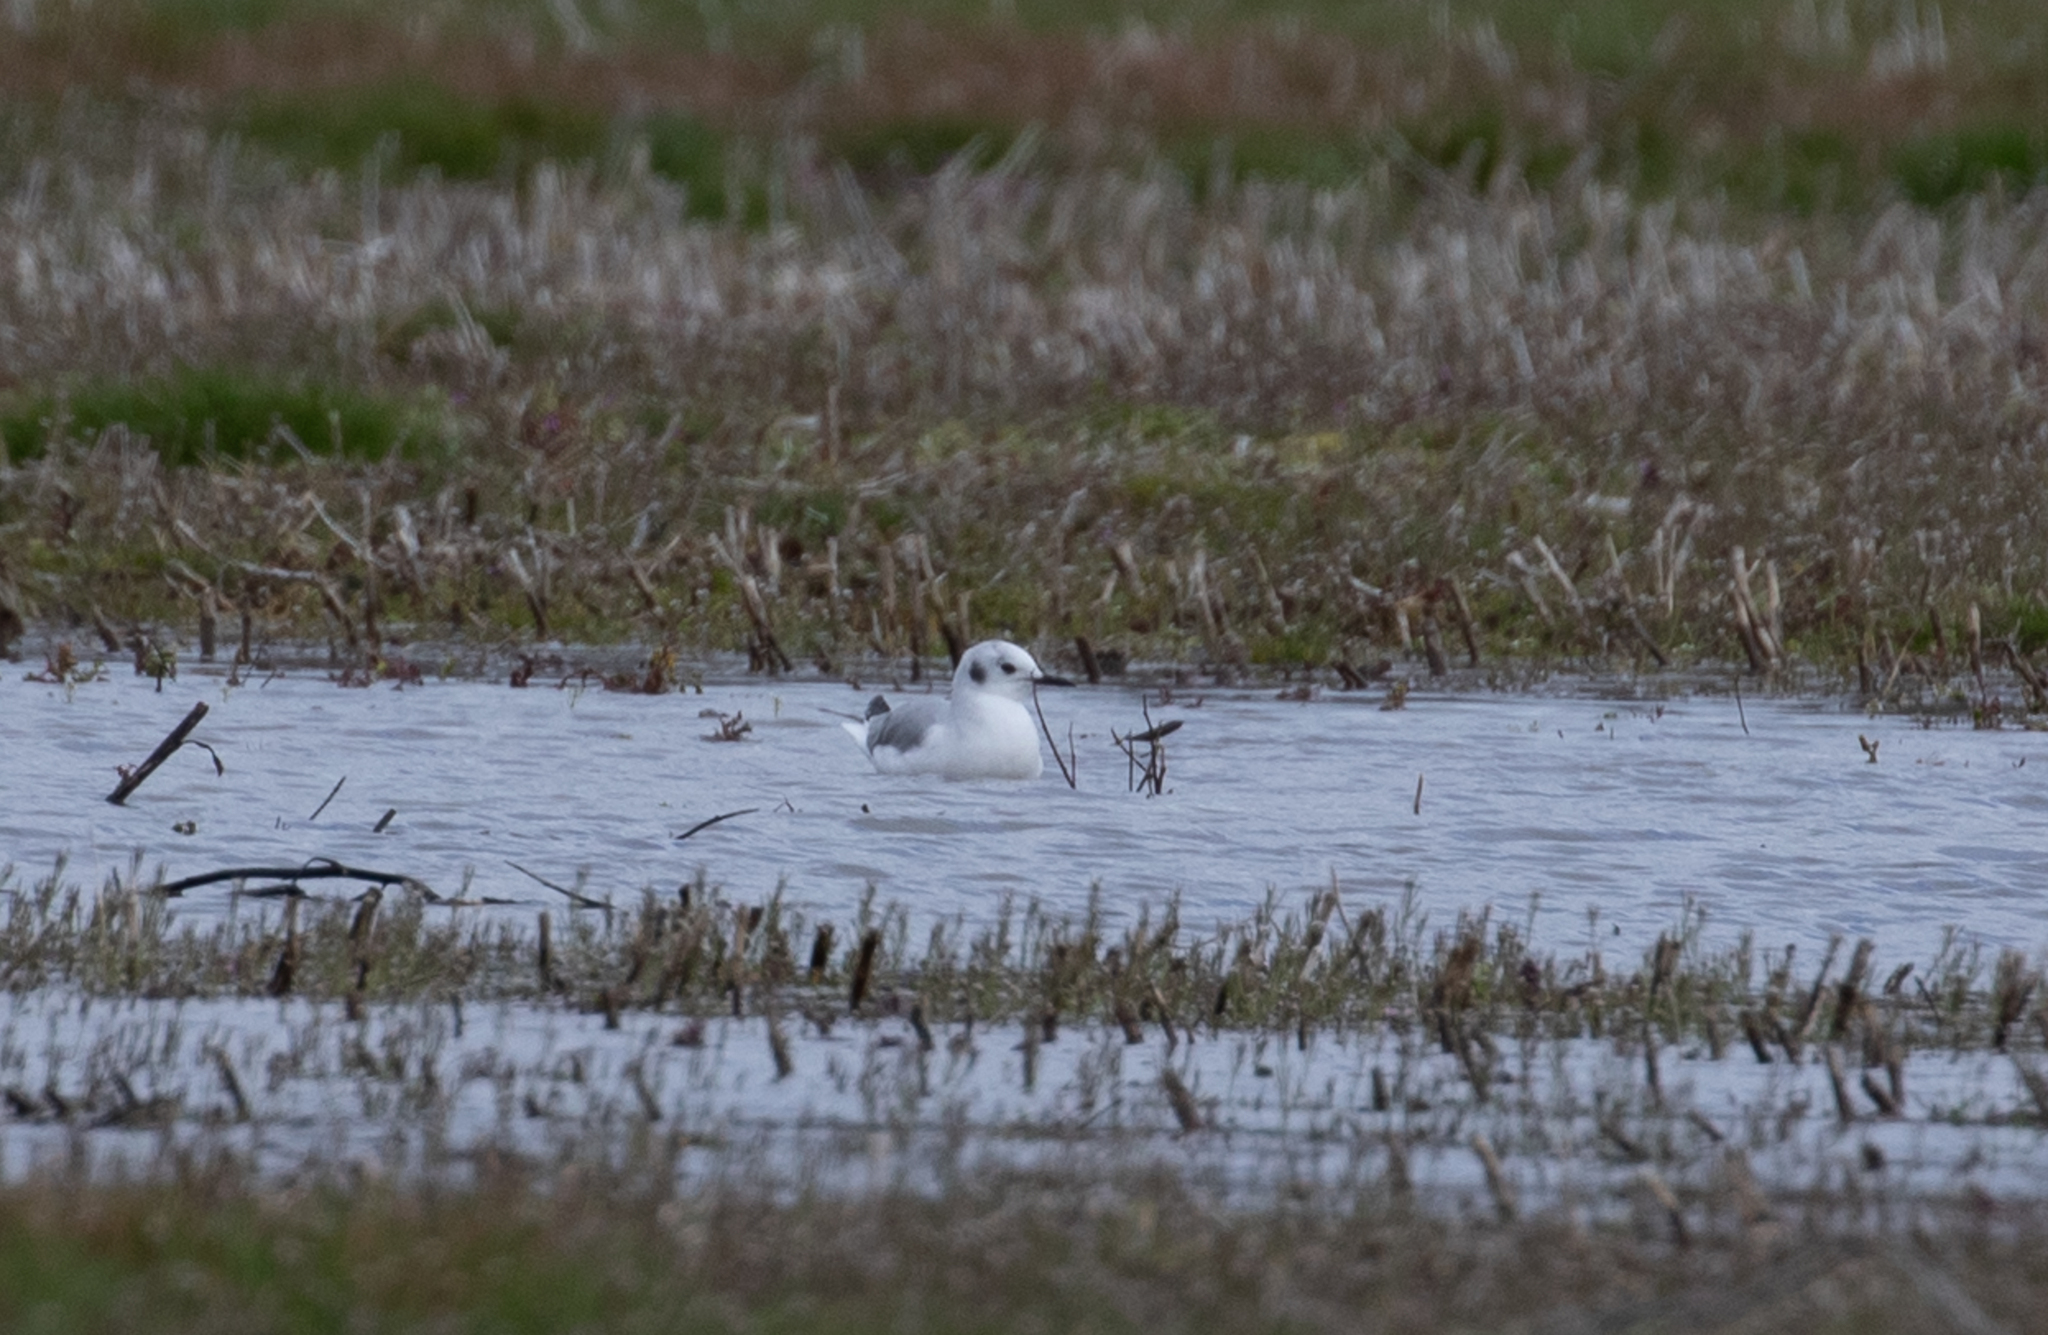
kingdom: Animalia
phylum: Chordata
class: Aves
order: Charadriiformes
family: Laridae
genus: Chroicocephalus
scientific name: Chroicocephalus philadelphia
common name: Bonaparte's gull
